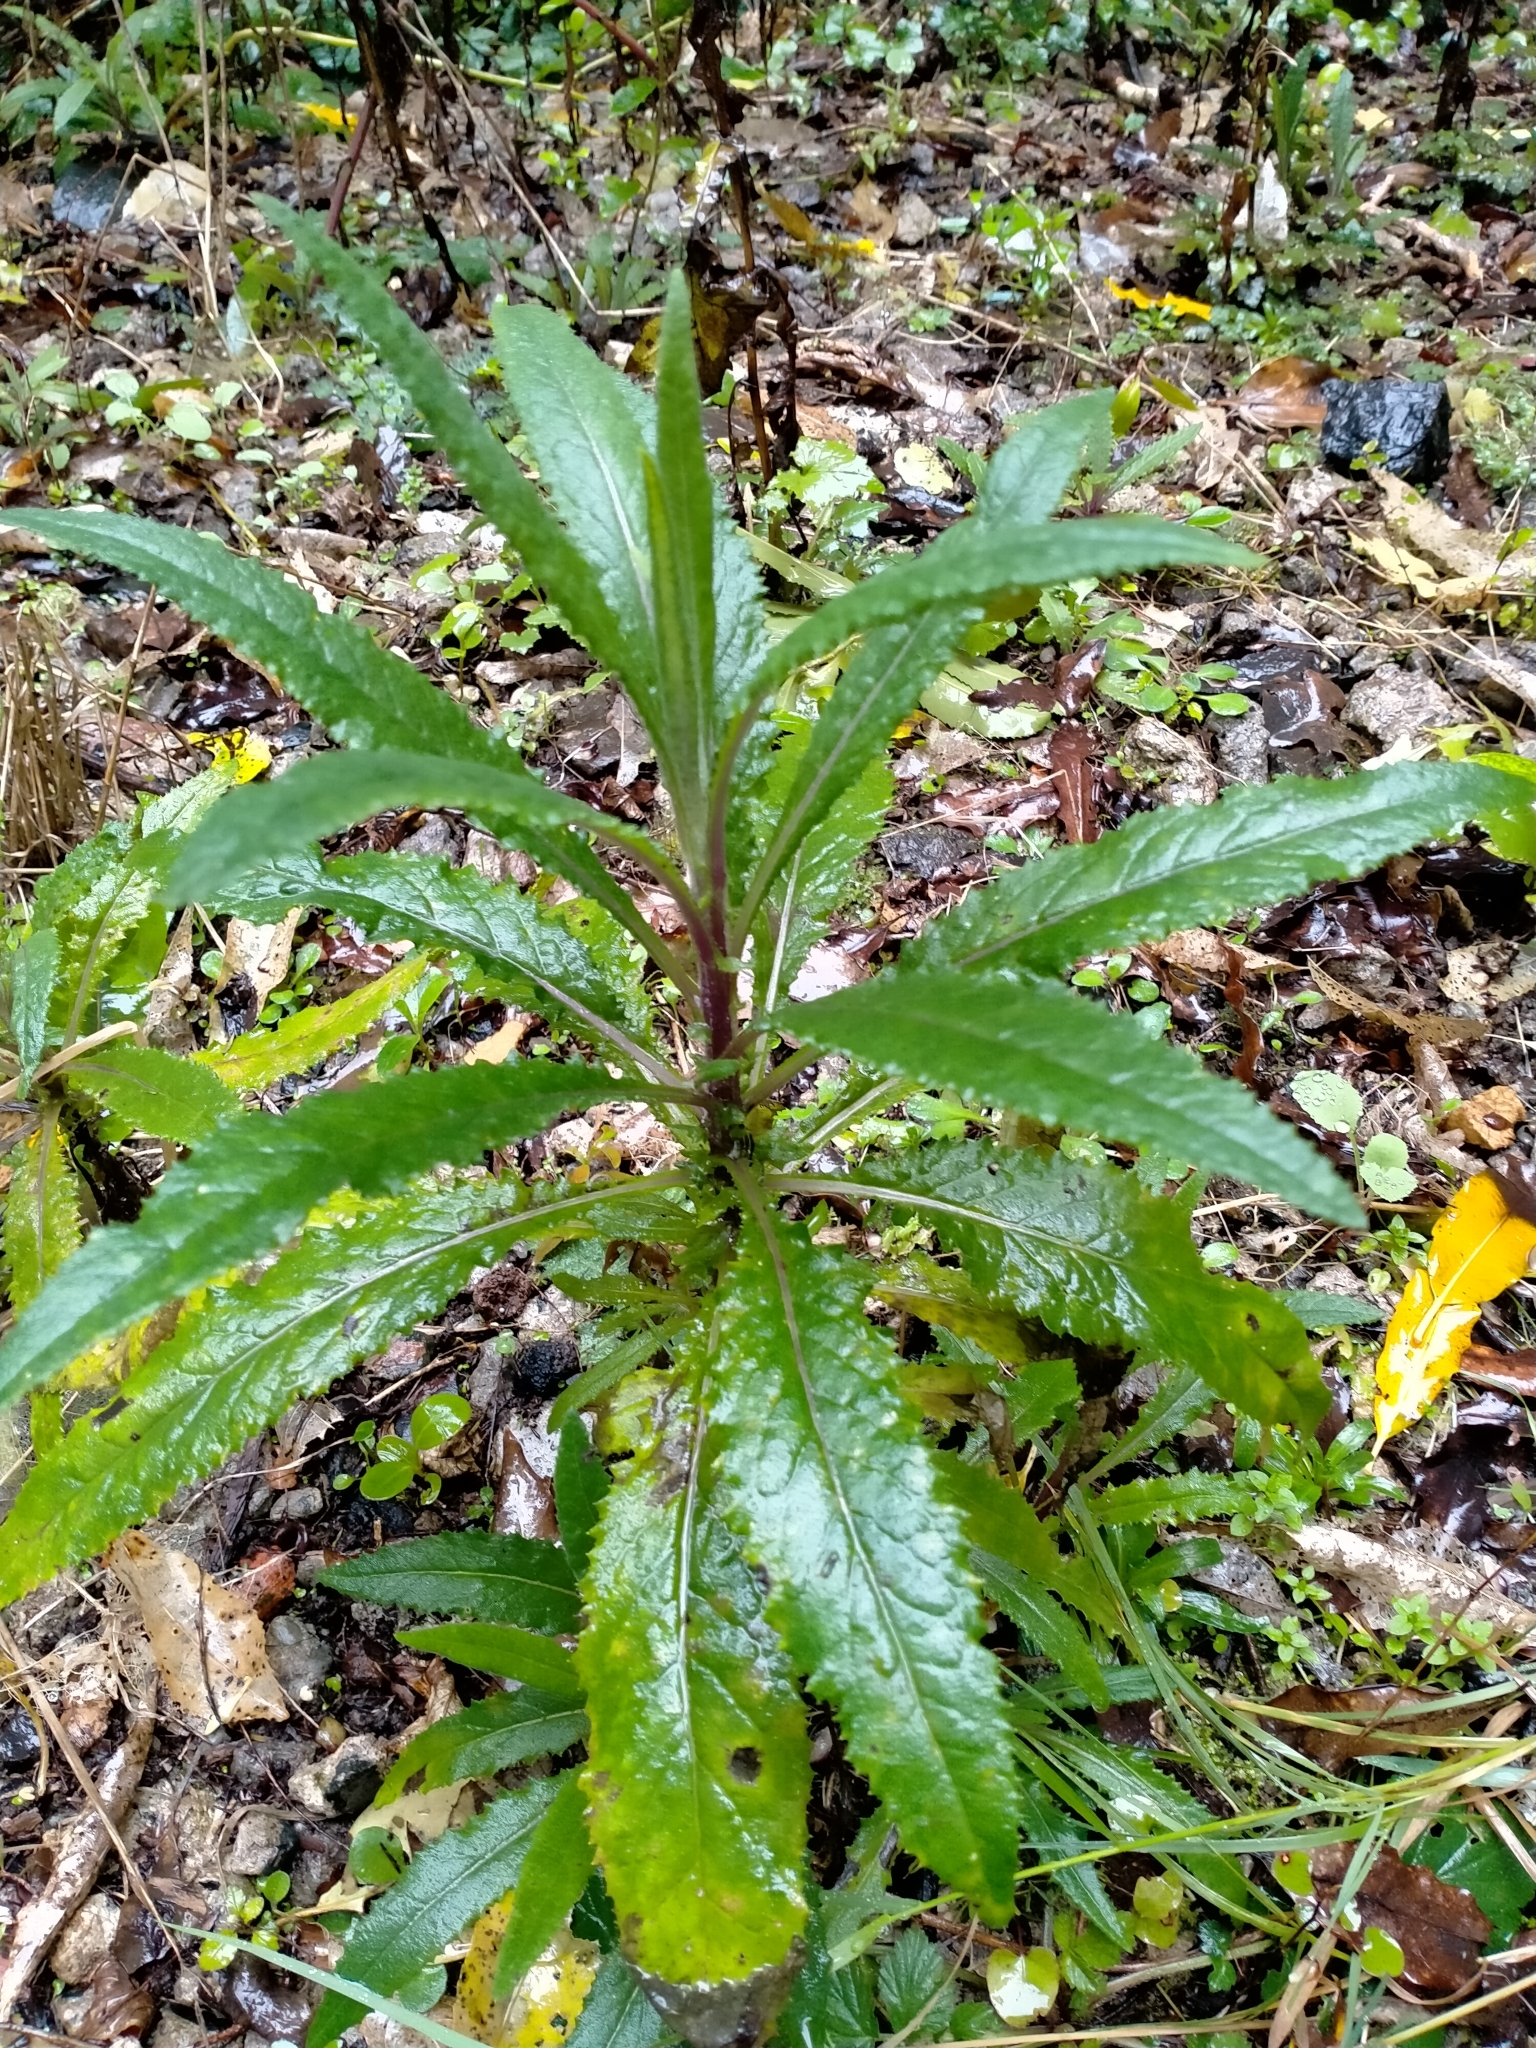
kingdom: Plantae
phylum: Tracheophyta
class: Magnoliopsida
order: Asterales
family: Asteraceae
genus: Senecio
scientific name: Senecio minimus
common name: Toothed fireweed
